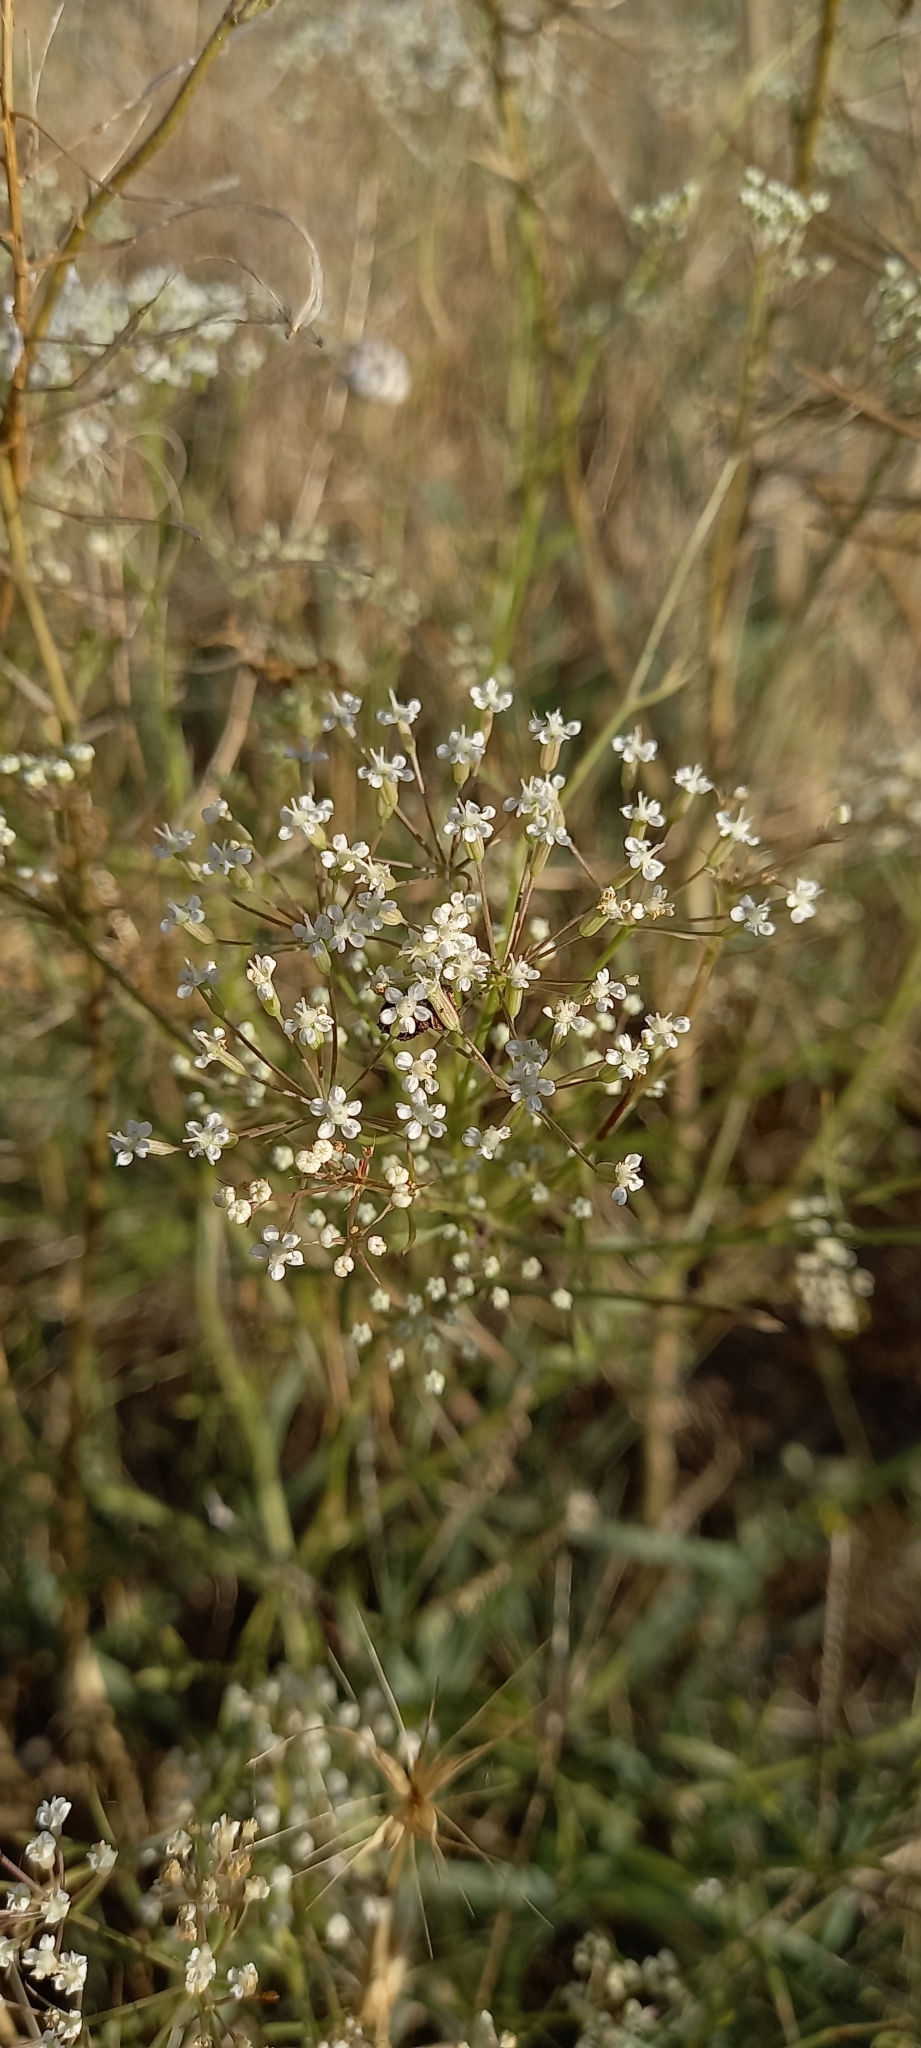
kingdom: Plantae
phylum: Tracheophyta
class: Magnoliopsida
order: Apiales
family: Apiaceae
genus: Falcaria
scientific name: Falcaria vulgaris
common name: Longleaf
